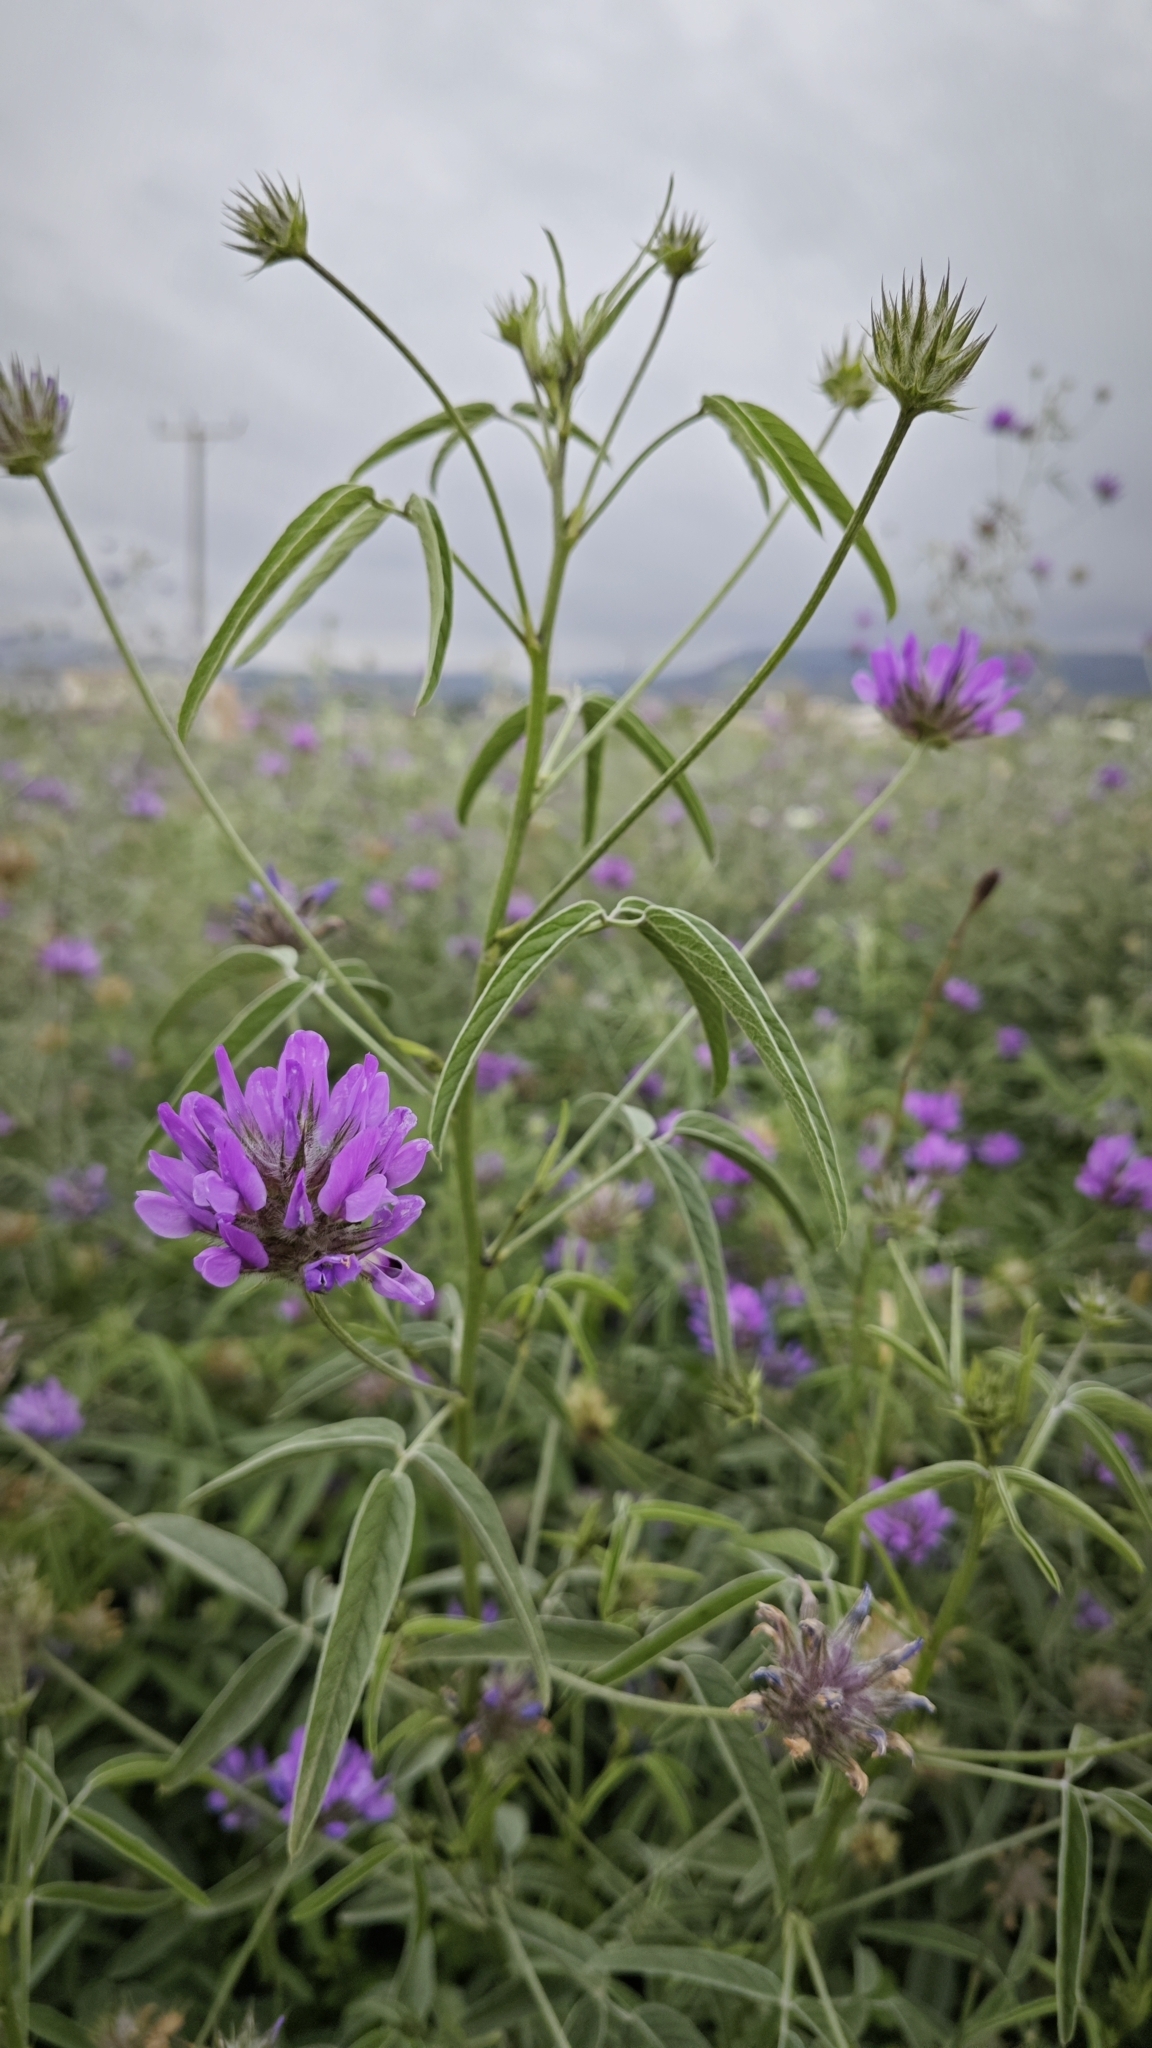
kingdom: Plantae
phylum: Tracheophyta
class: Magnoliopsida
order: Fabales
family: Fabaceae
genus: Bituminaria
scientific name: Bituminaria bituminosa
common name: Arabian pea
